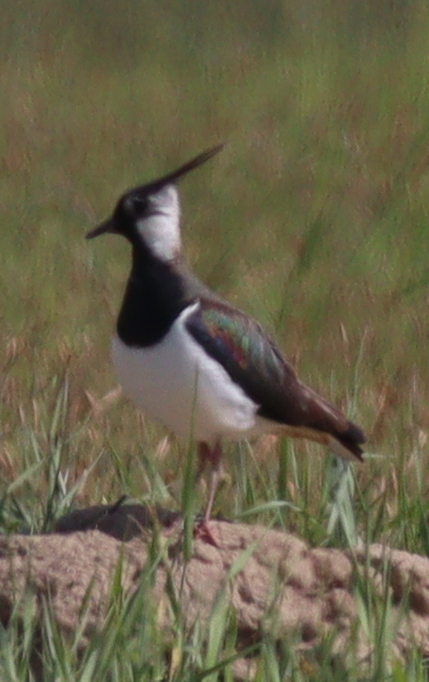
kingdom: Animalia
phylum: Chordata
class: Aves
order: Charadriiformes
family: Charadriidae
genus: Vanellus
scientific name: Vanellus vanellus
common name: Northern lapwing
